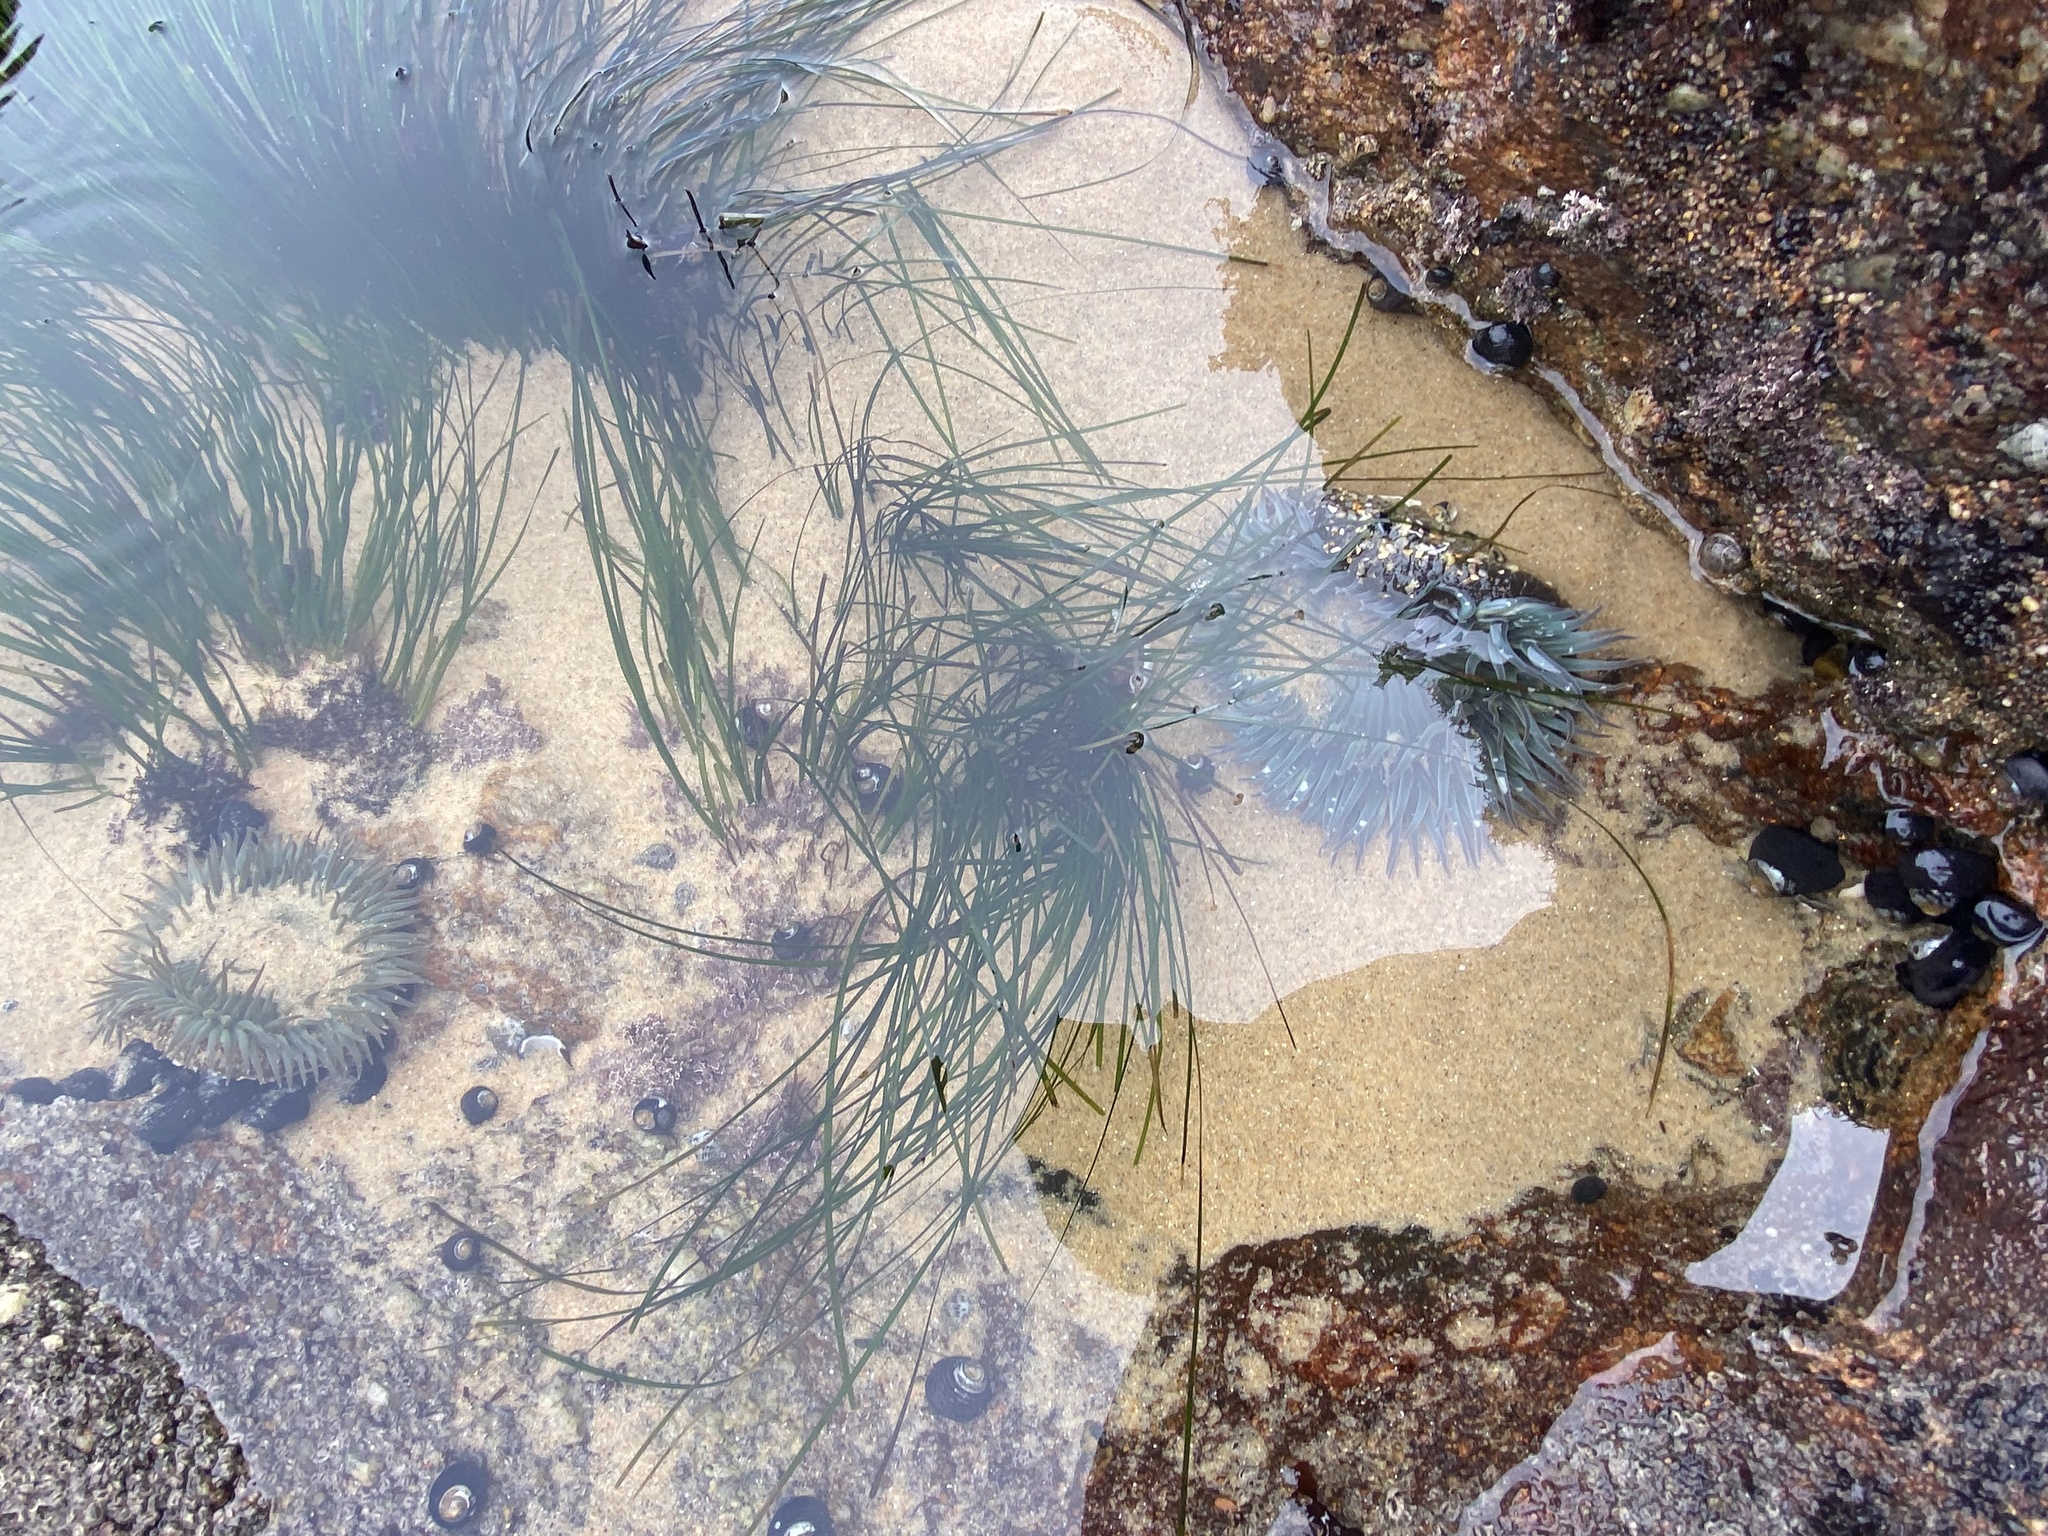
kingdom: Plantae
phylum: Tracheophyta
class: Liliopsida
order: Alismatales
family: Zosteraceae
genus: Phyllospadix
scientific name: Phyllospadix torreyi
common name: Surfgrass
